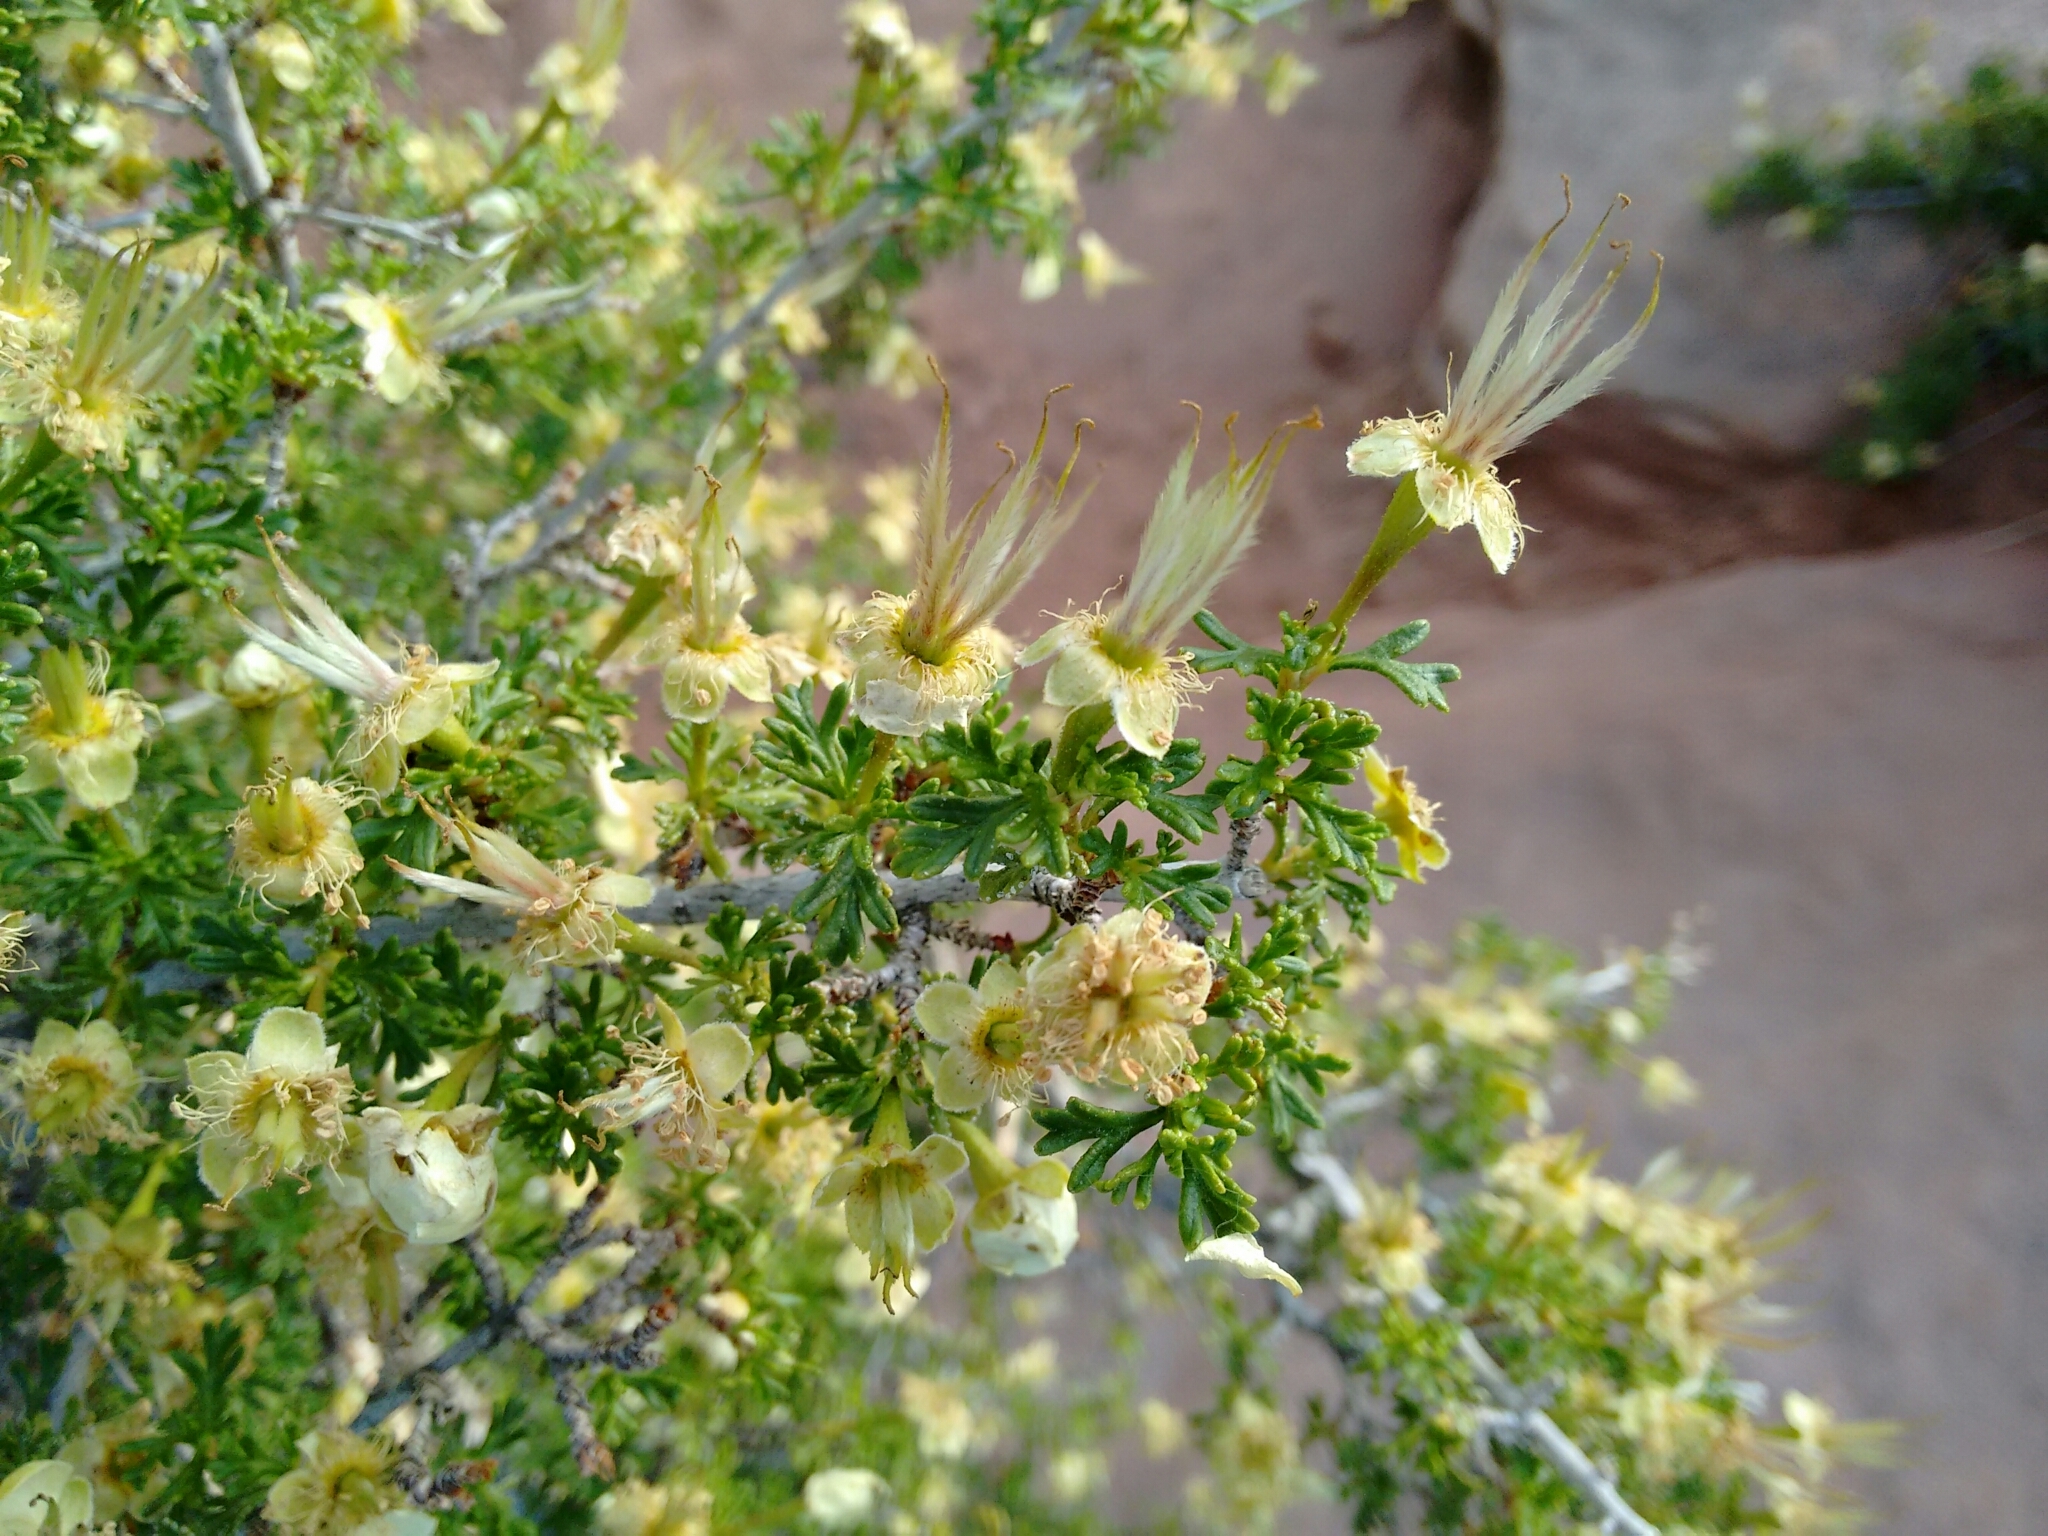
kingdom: Plantae
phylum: Tracheophyta
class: Magnoliopsida
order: Rosales
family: Rosaceae
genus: Purshia
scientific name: Purshia stansburiana
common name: Stansbury's cliffrose
